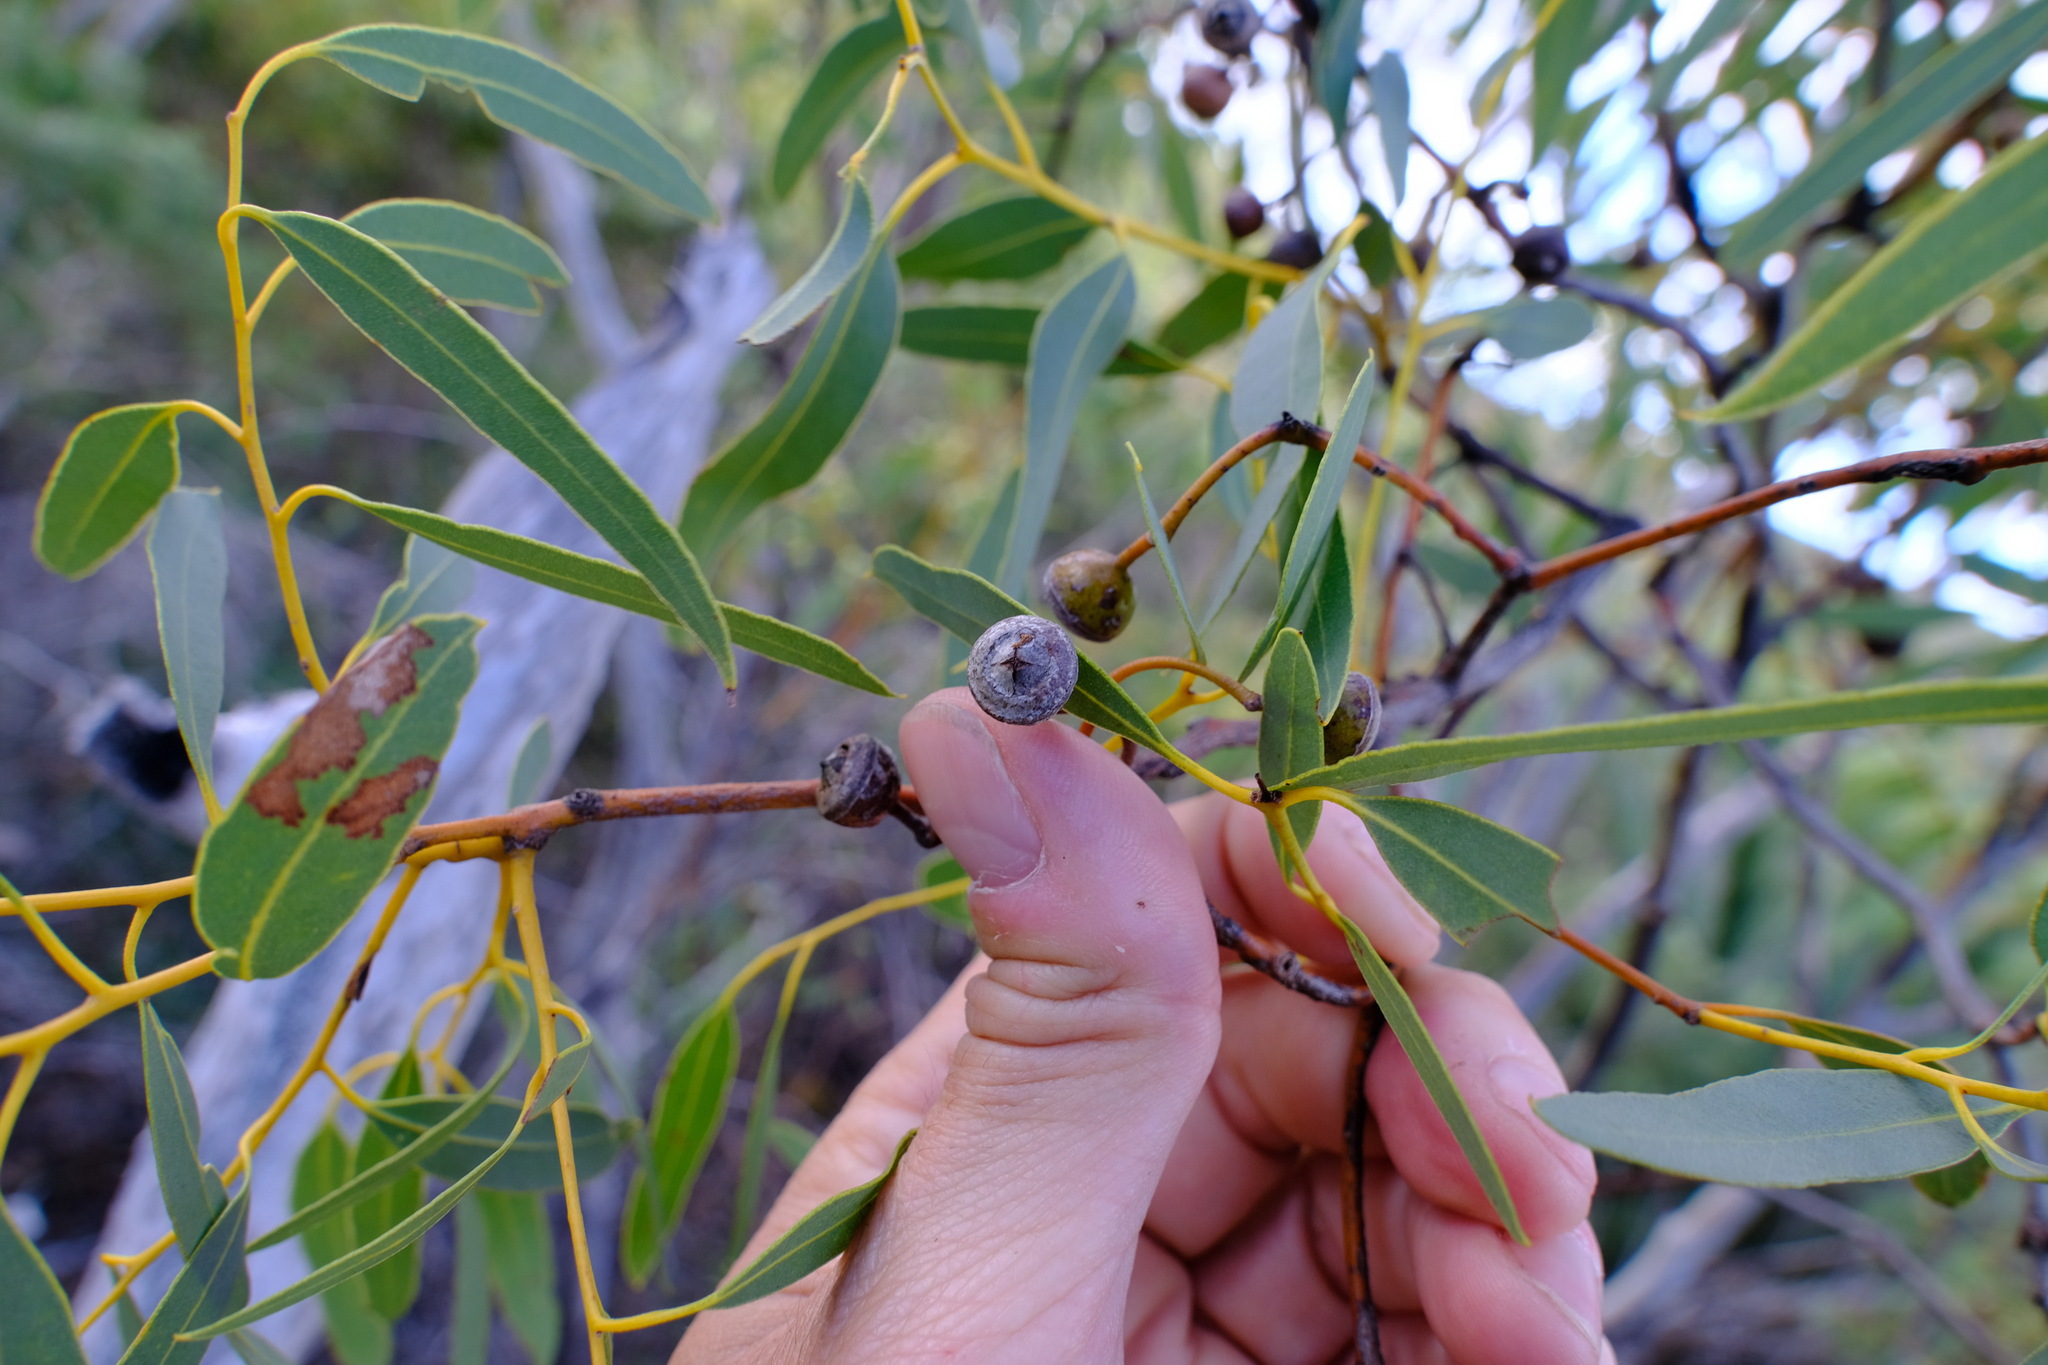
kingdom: Plantae
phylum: Tracheophyta
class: Magnoliopsida
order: Myrtales
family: Myrtaceae
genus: Eucalyptus
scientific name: Eucalyptus drummondii
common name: Drummond's mallee
